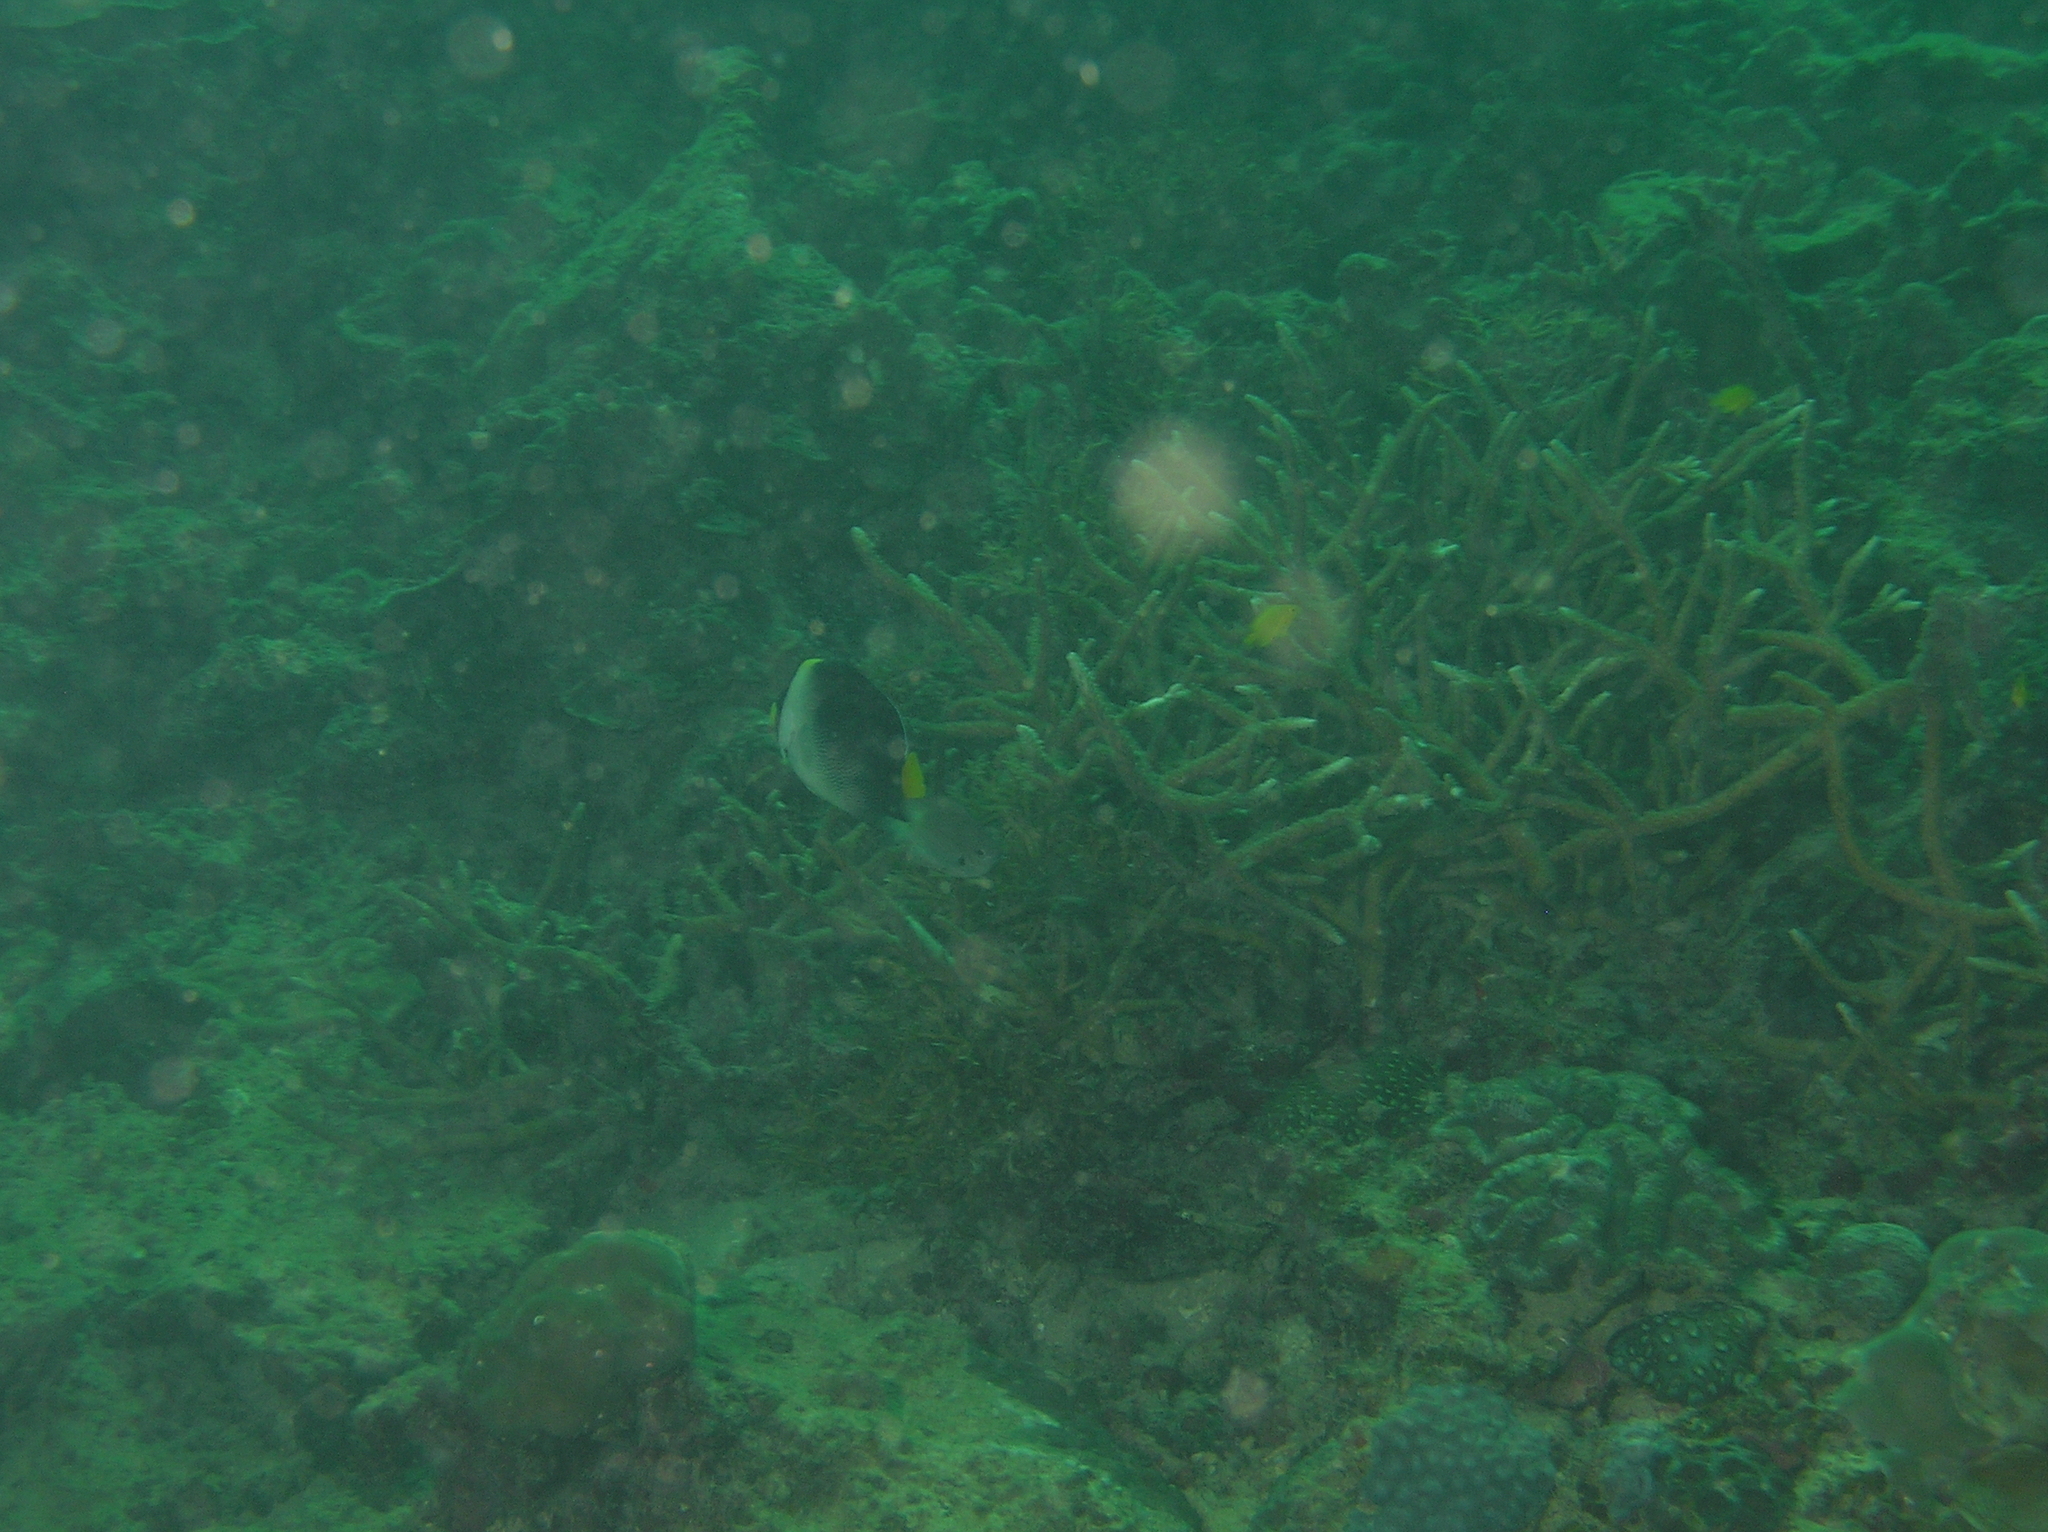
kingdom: Animalia
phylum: Chordata
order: Perciformes
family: Pomacanthidae
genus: Chaetodontoplus
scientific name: Chaetodontoplus mesoleucus
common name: Vermiculated angelfish
